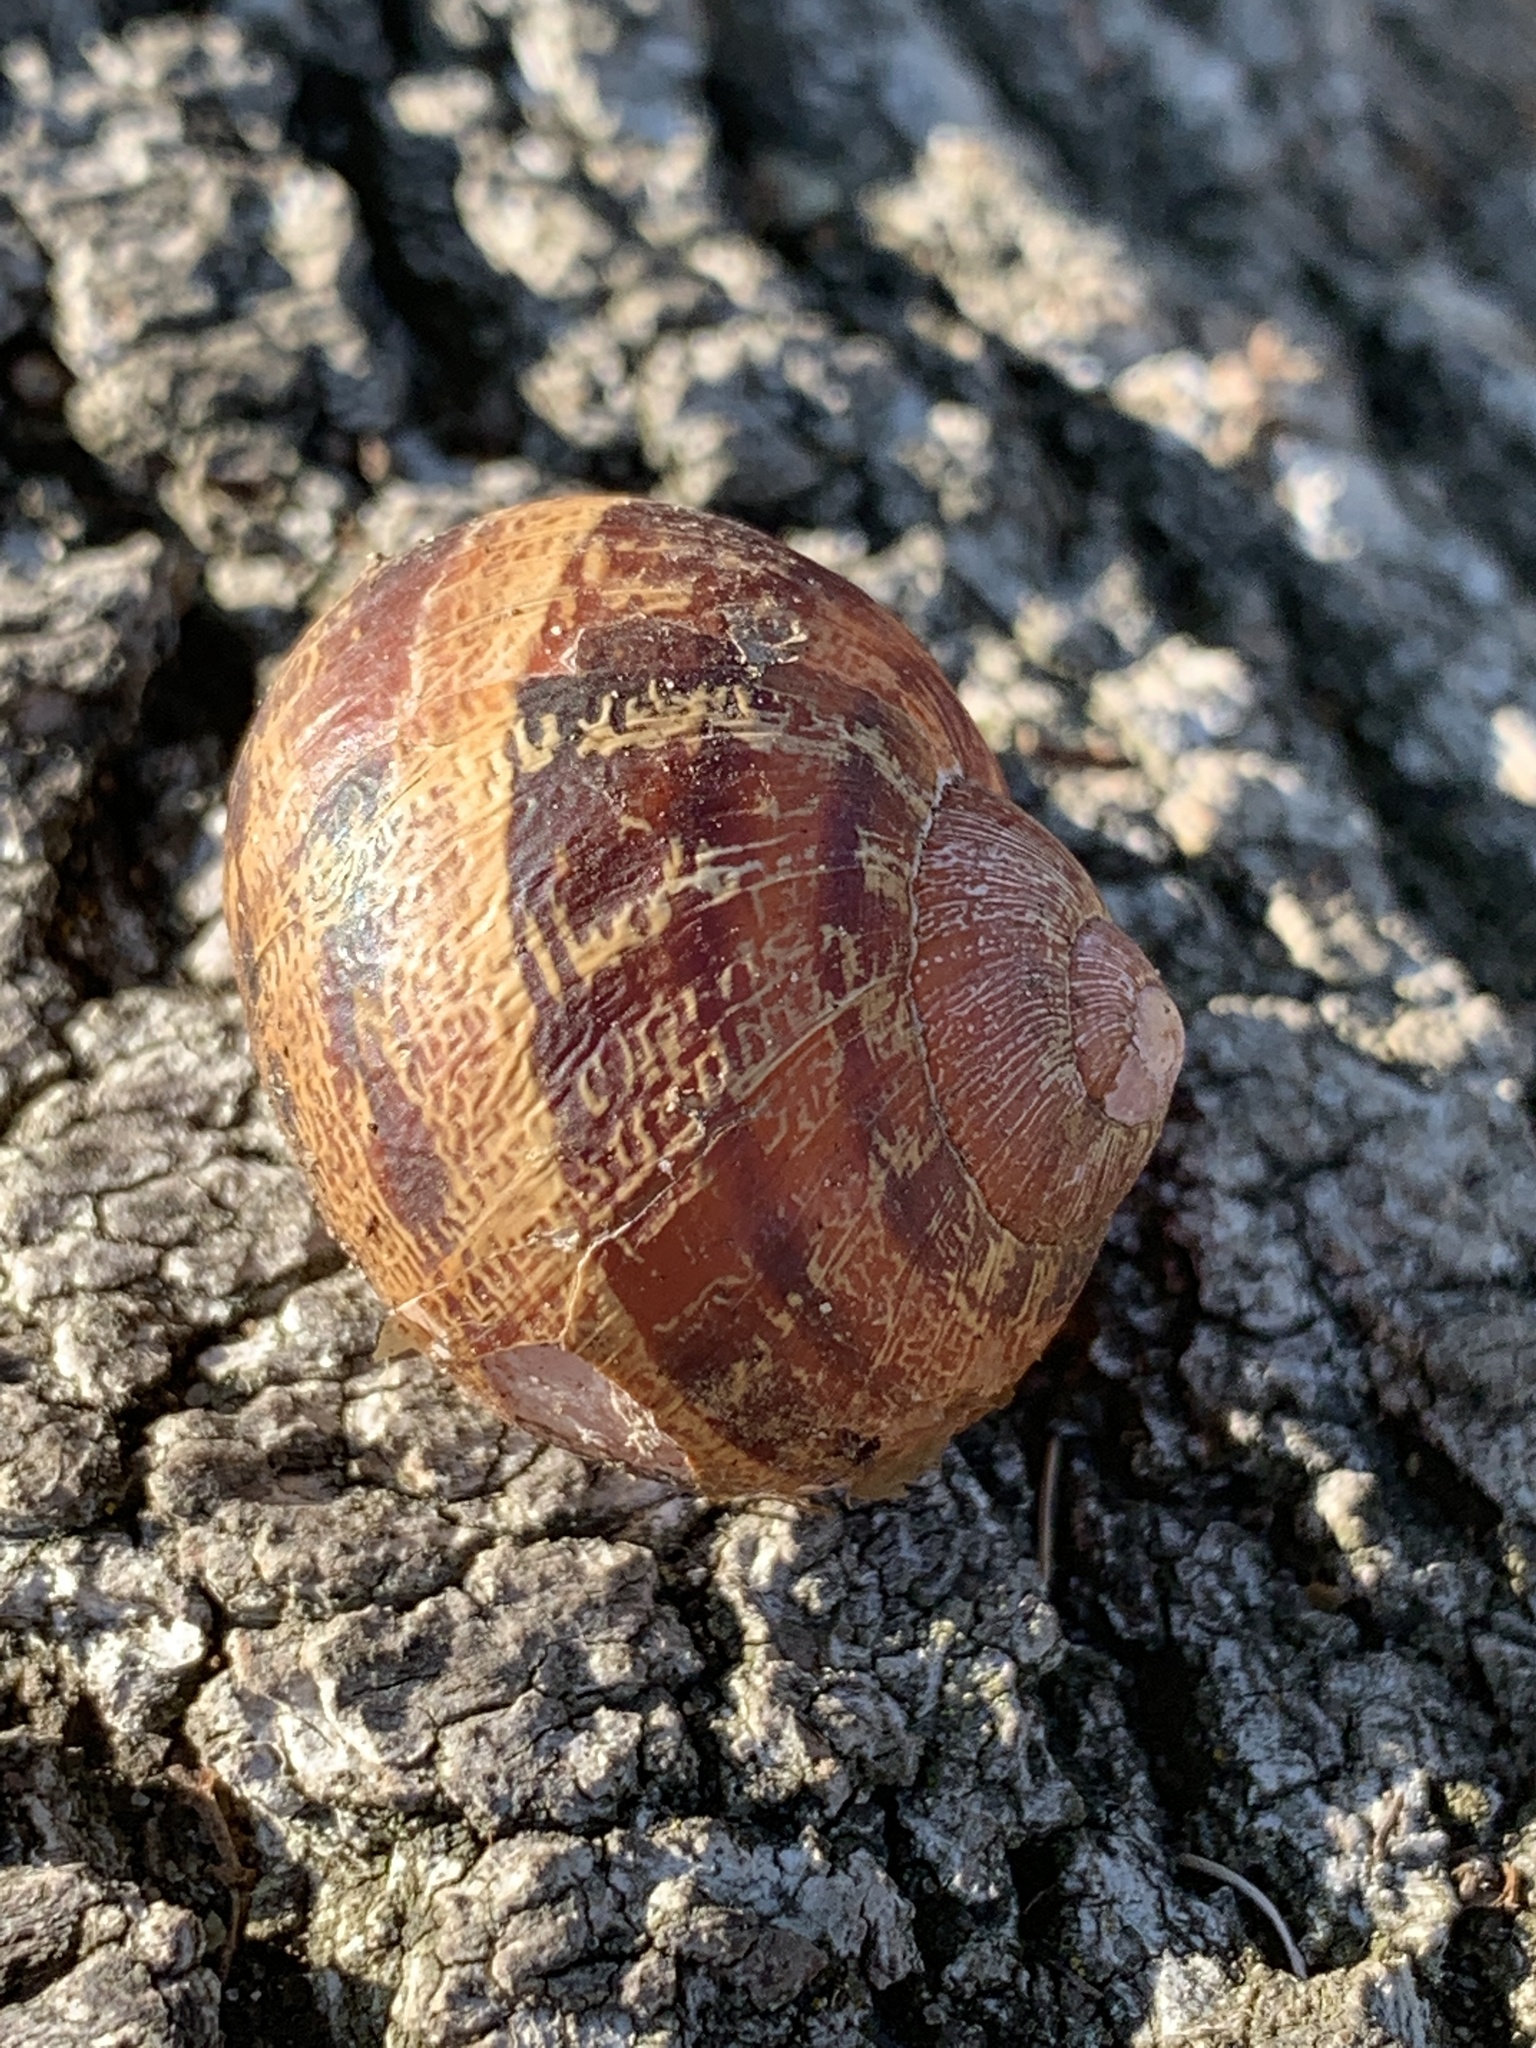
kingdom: Animalia
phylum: Mollusca
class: Gastropoda
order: Stylommatophora
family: Helicidae
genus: Cornu
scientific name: Cornu aspersum
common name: Brown garden snail
